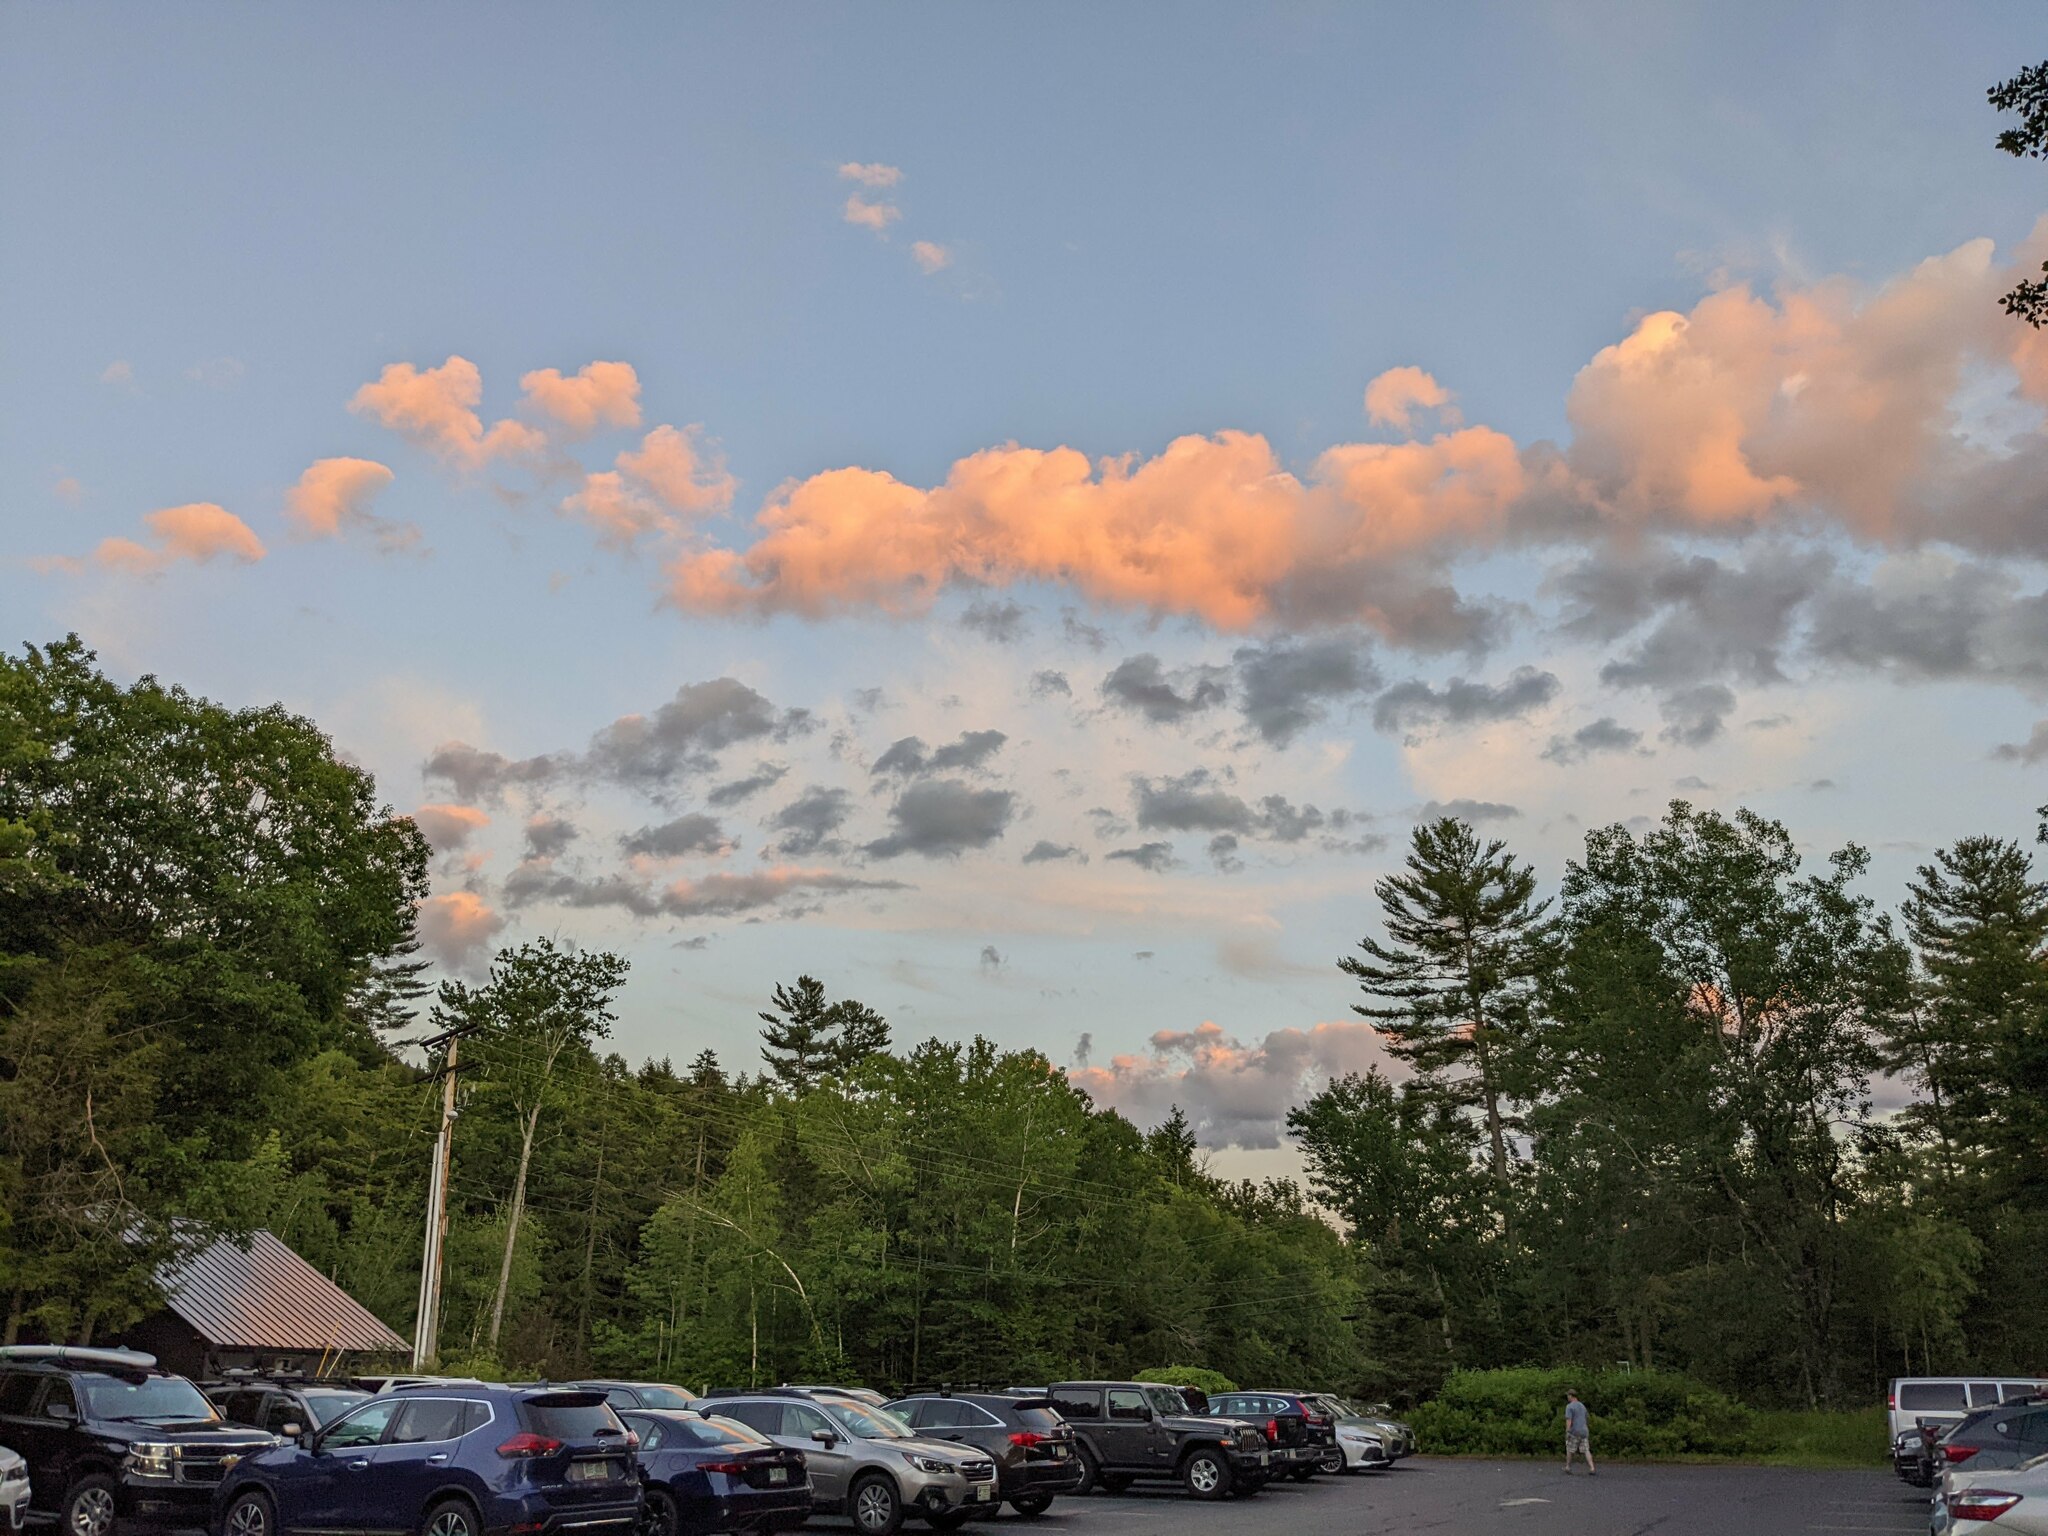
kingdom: Plantae
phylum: Tracheophyta
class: Pinopsida
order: Pinales
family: Pinaceae
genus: Pinus
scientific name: Pinus strobus
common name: Weymouth pine
